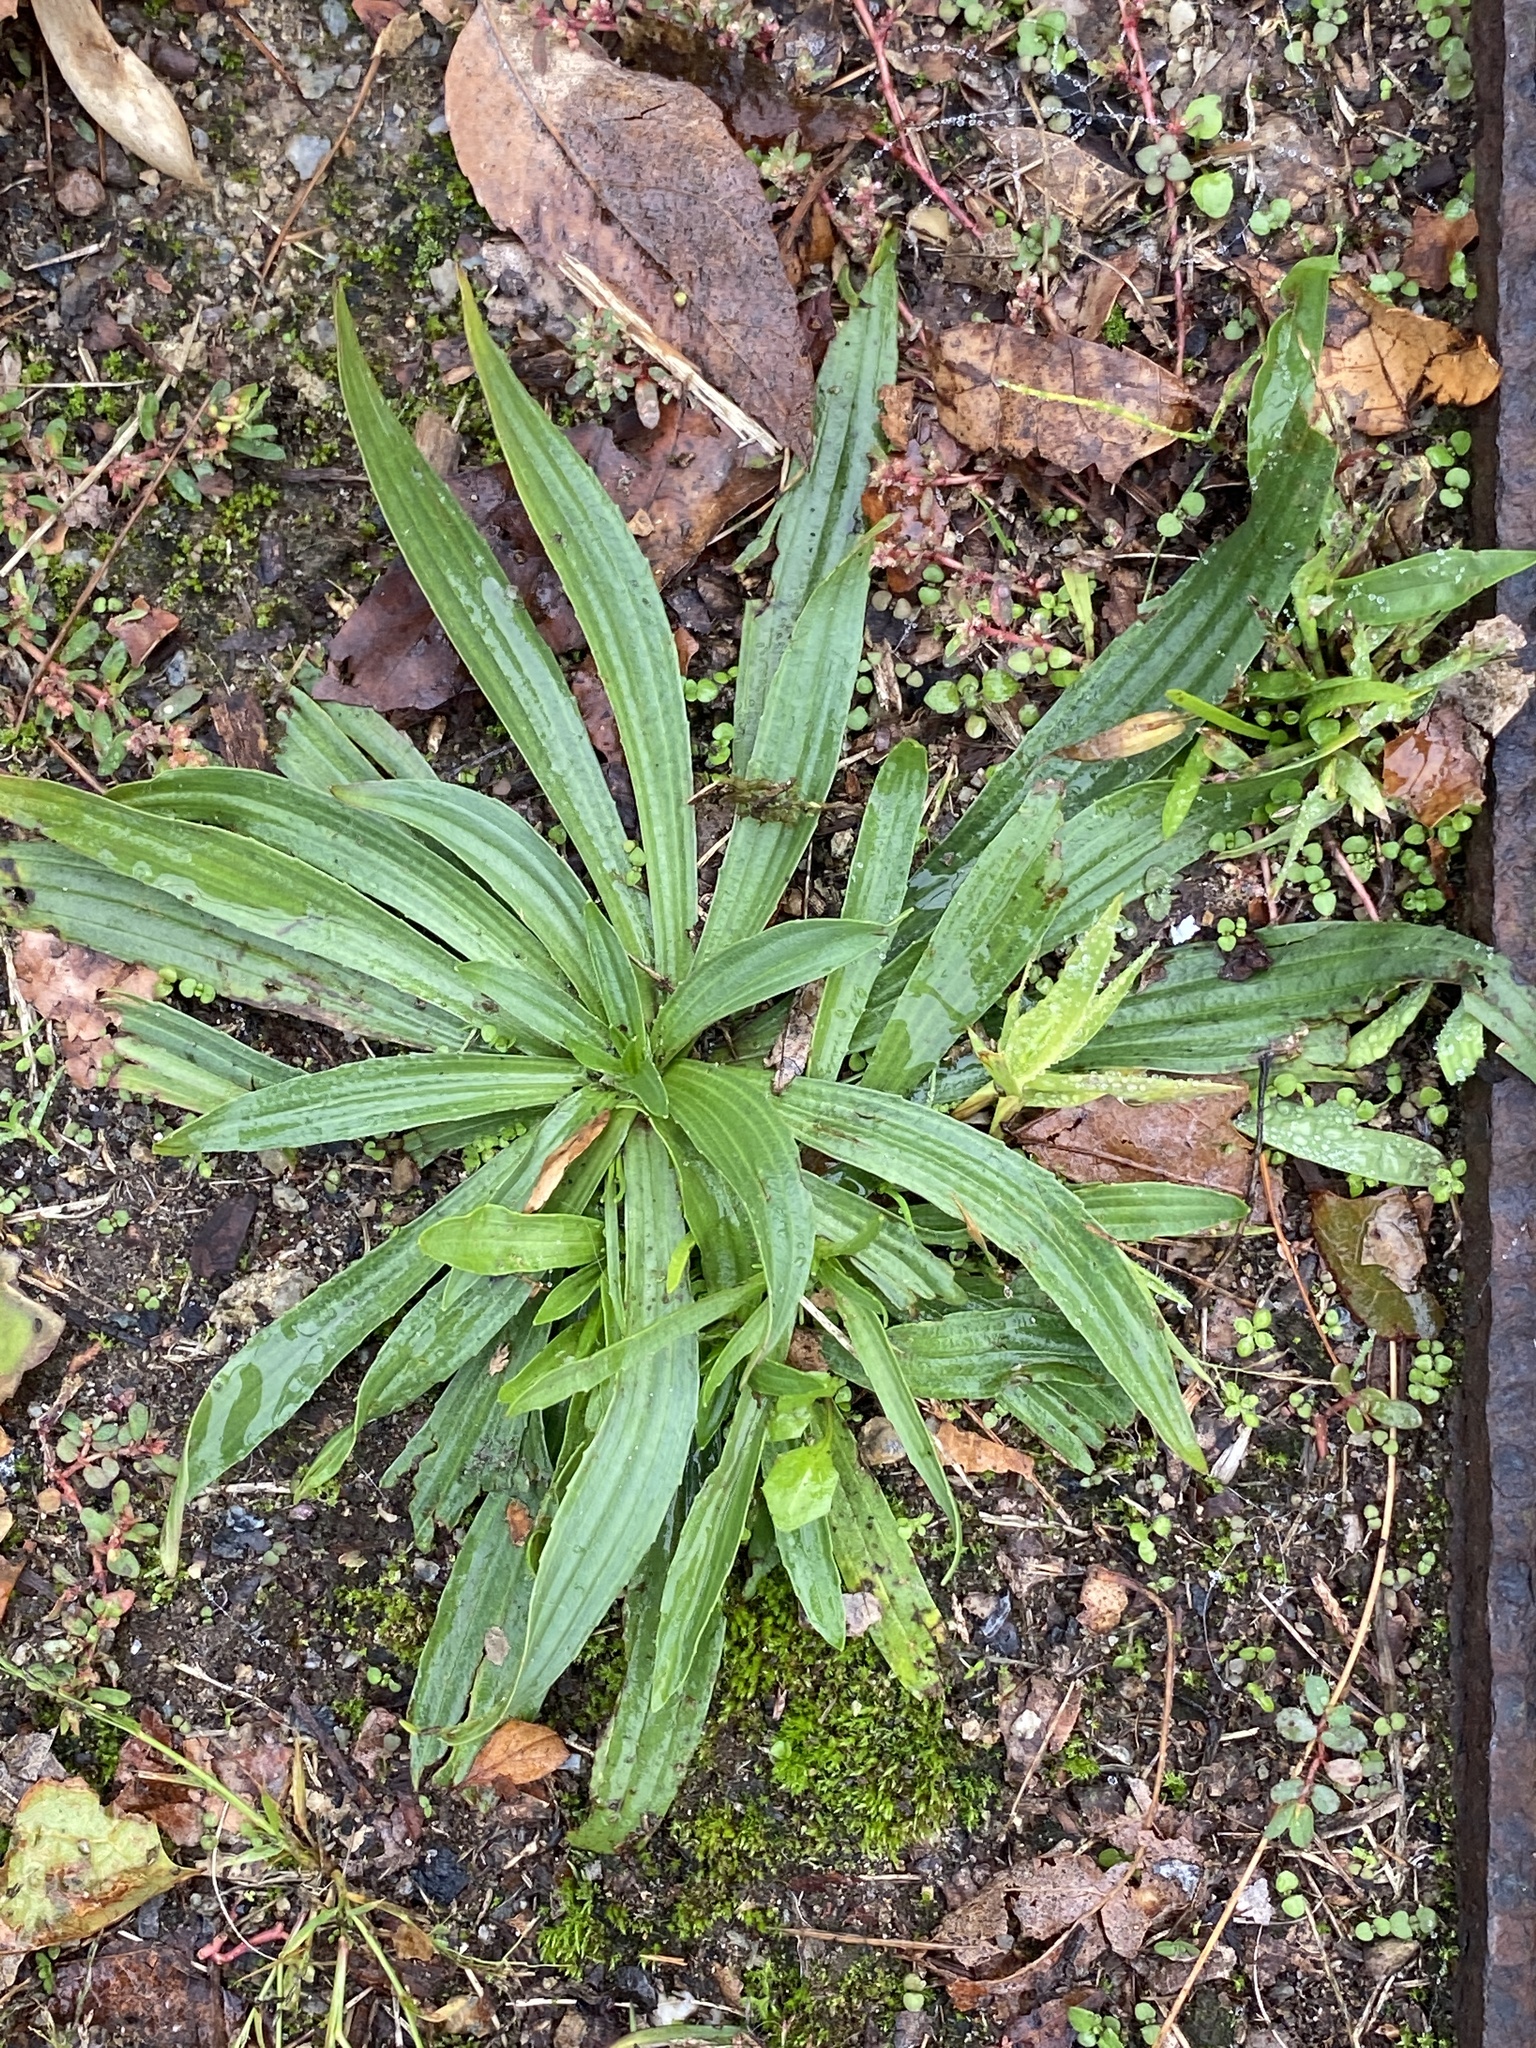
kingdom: Plantae
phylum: Tracheophyta
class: Magnoliopsida
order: Lamiales
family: Plantaginaceae
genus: Plantago
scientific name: Plantago lanceolata
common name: Ribwort plantain
